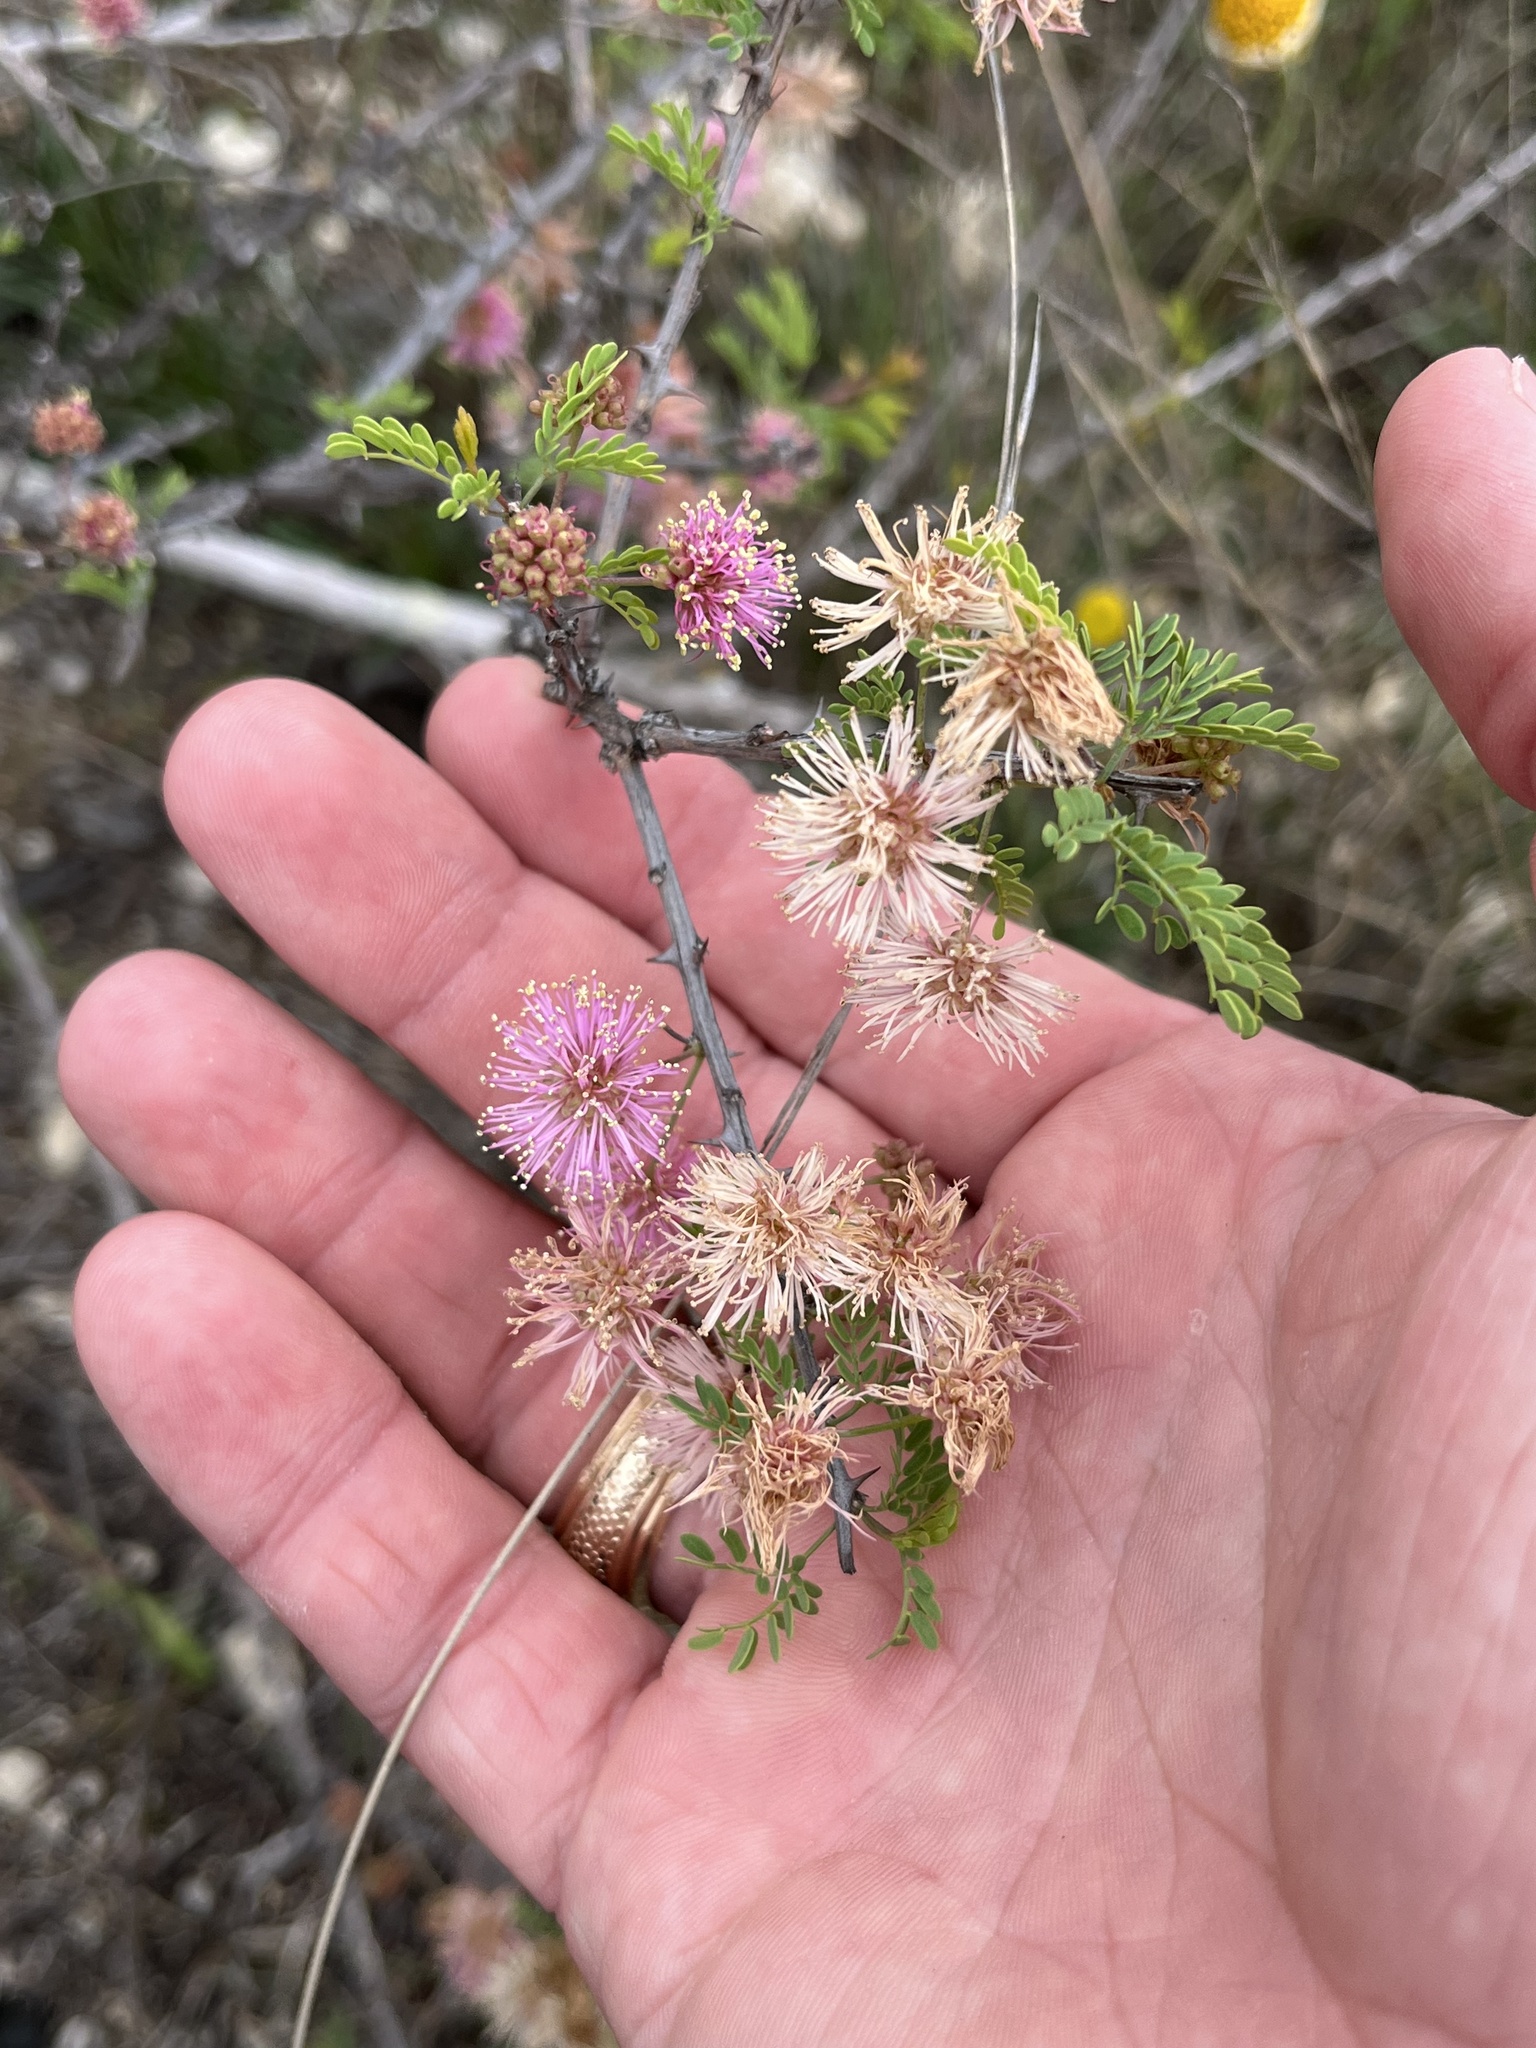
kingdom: Plantae
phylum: Tracheophyta
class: Magnoliopsida
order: Fabales
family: Fabaceae
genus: Mimosa
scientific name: Mimosa borealis
